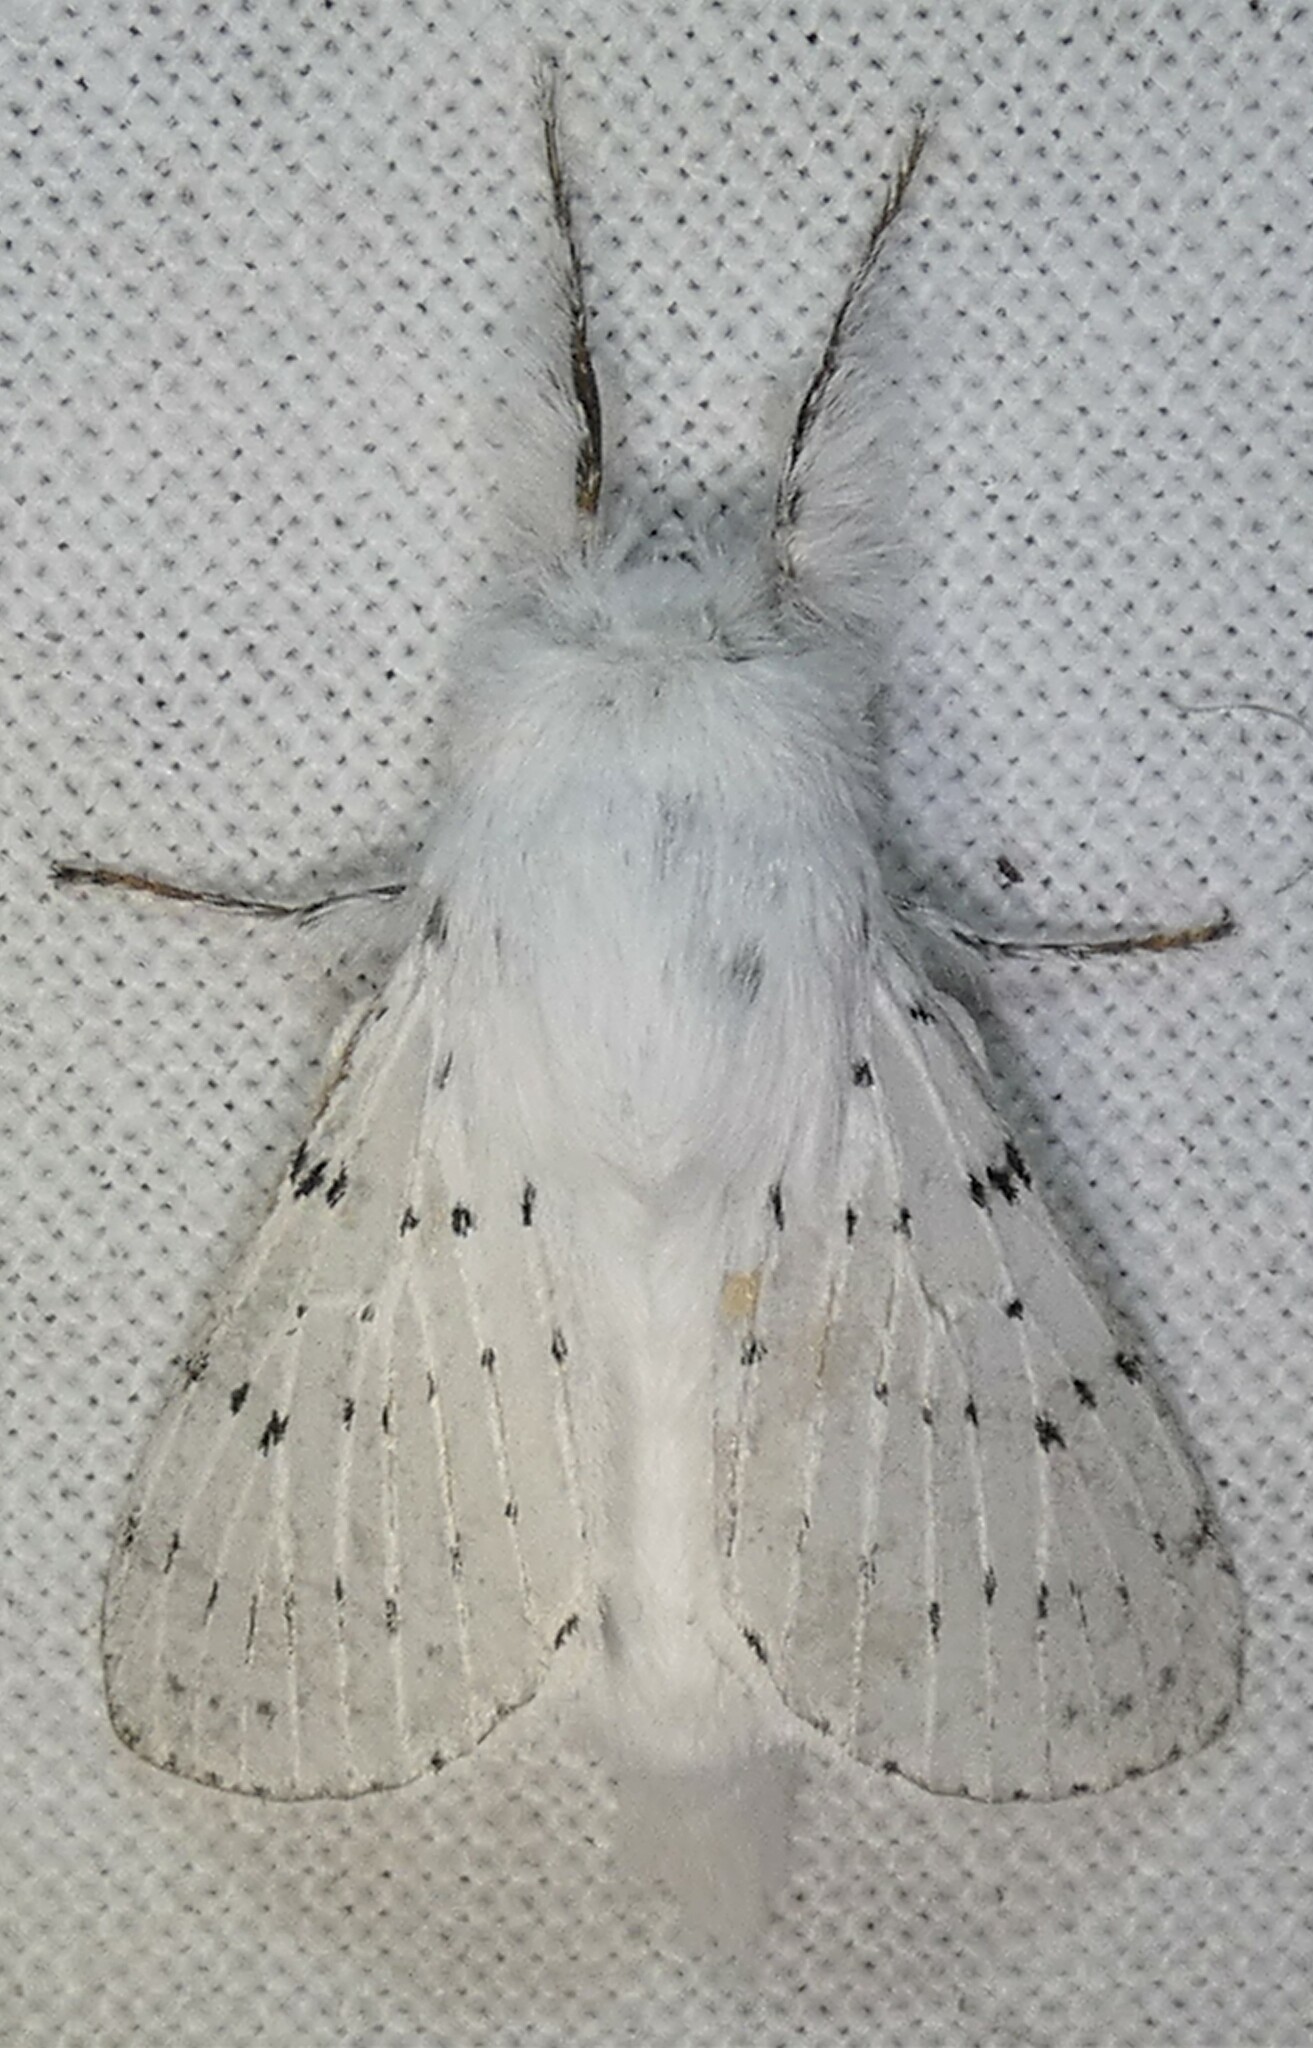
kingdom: Animalia
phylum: Arthropoda
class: Insecta
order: Lepidoptera
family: Lasiocampidae
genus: Artace
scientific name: Artace cribrarius
